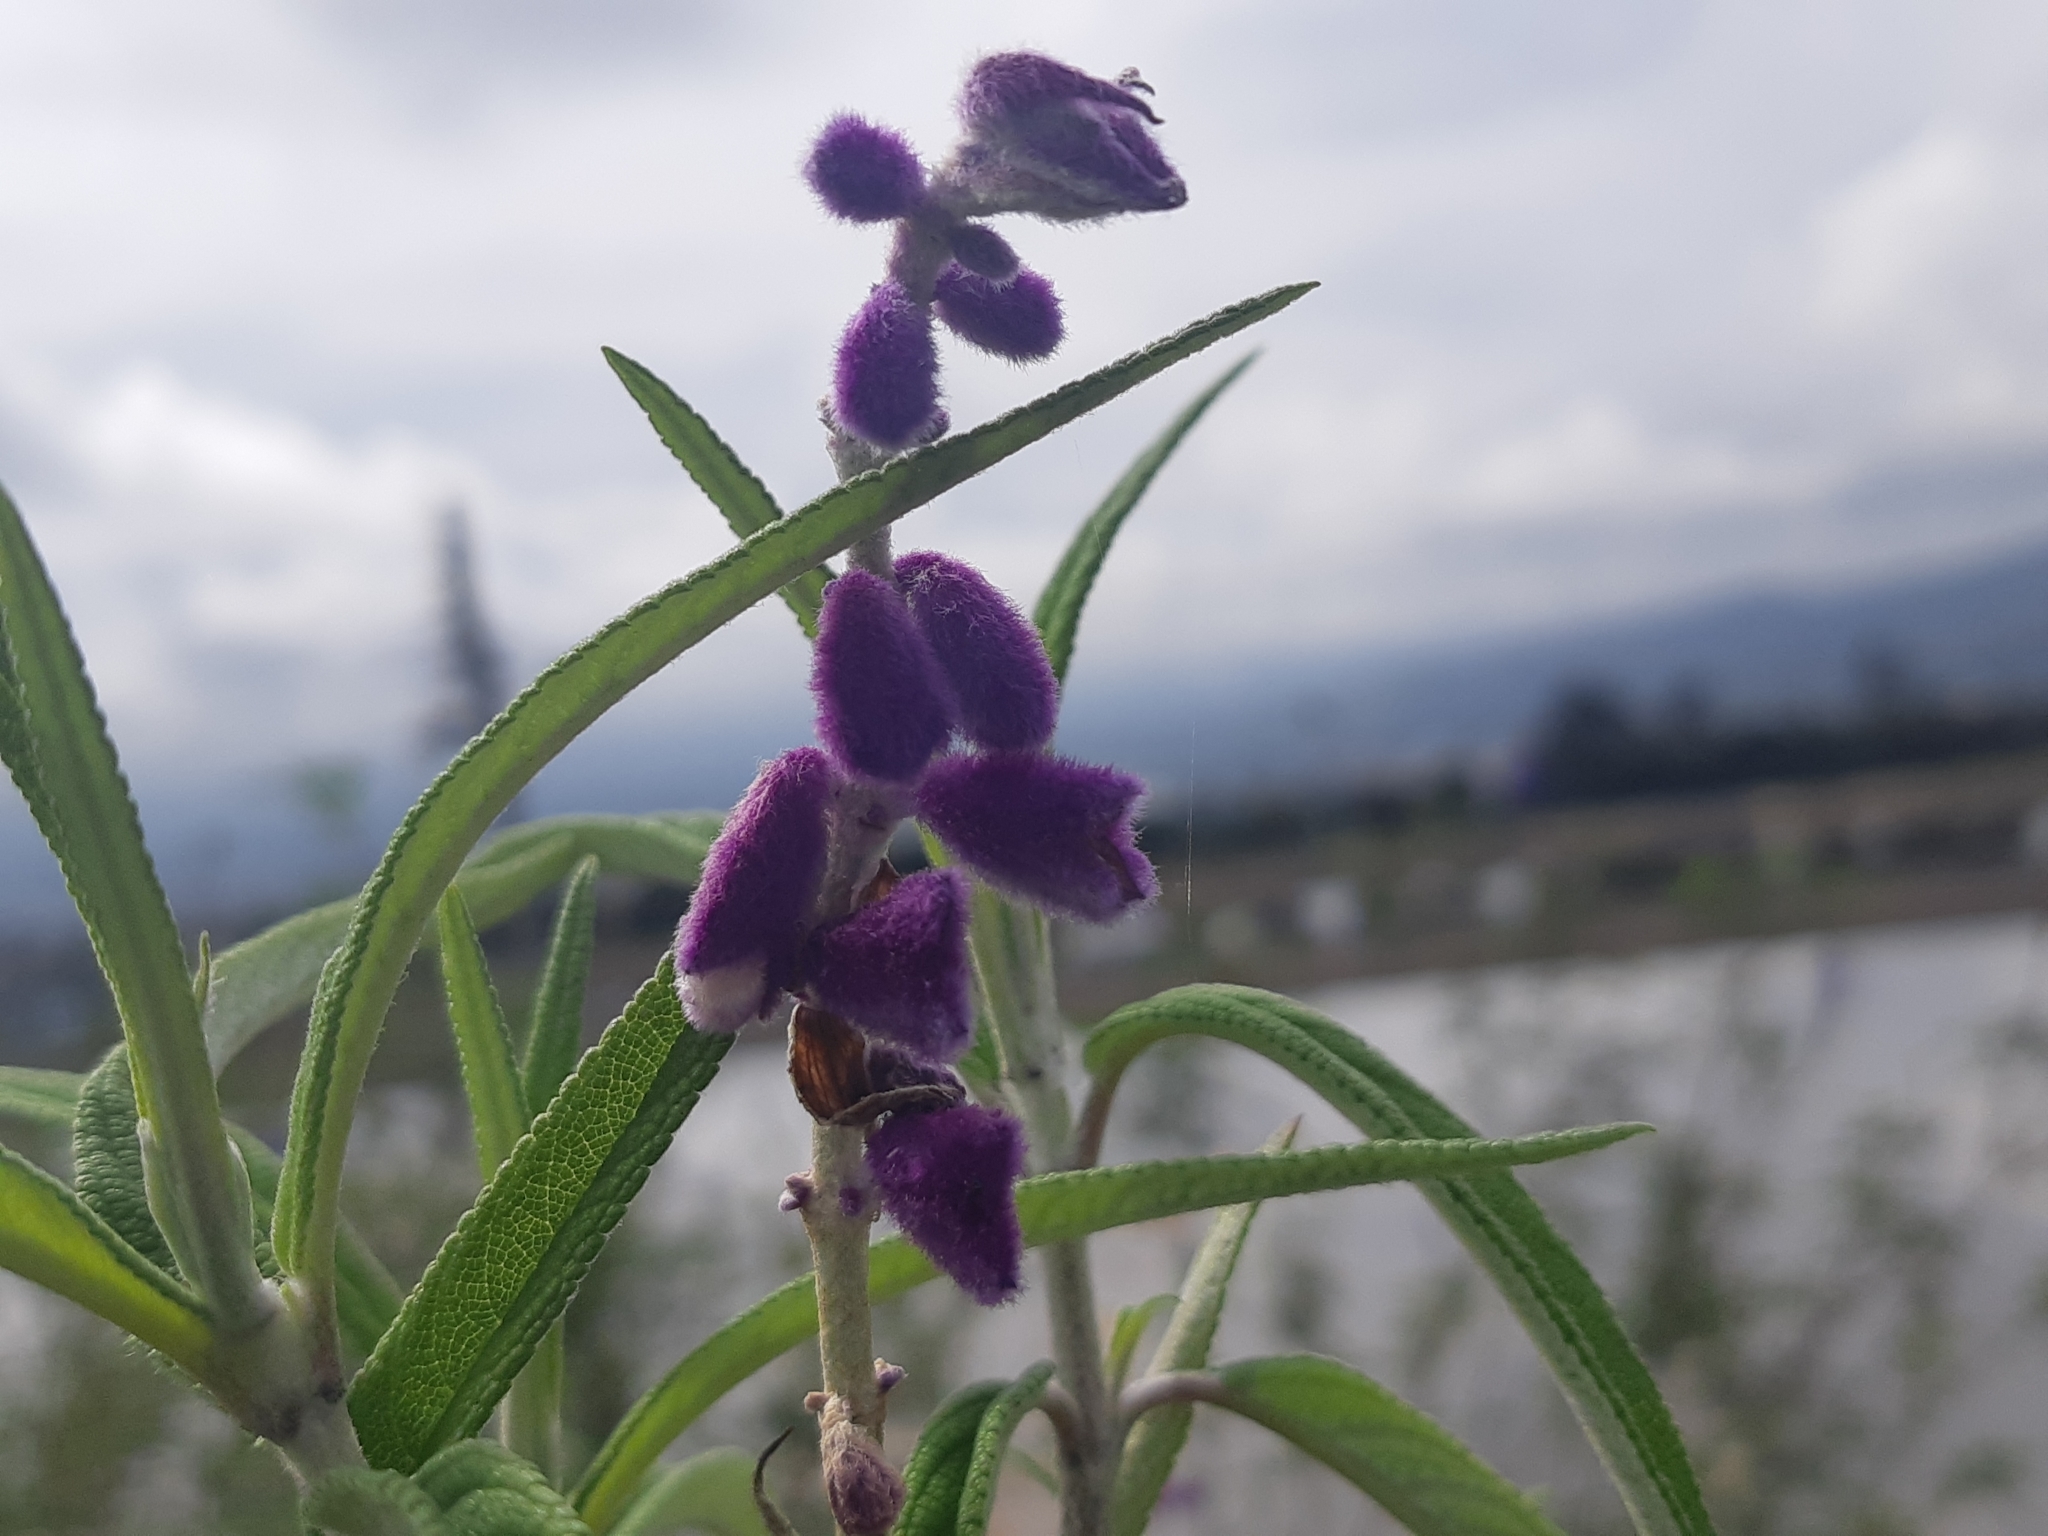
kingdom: Plantae
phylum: Tracheophyta
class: Magnoliopsida
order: Lamiales
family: Lamiaceae
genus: Salvia
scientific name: Salvia leucantha
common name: Mexican bush sage
